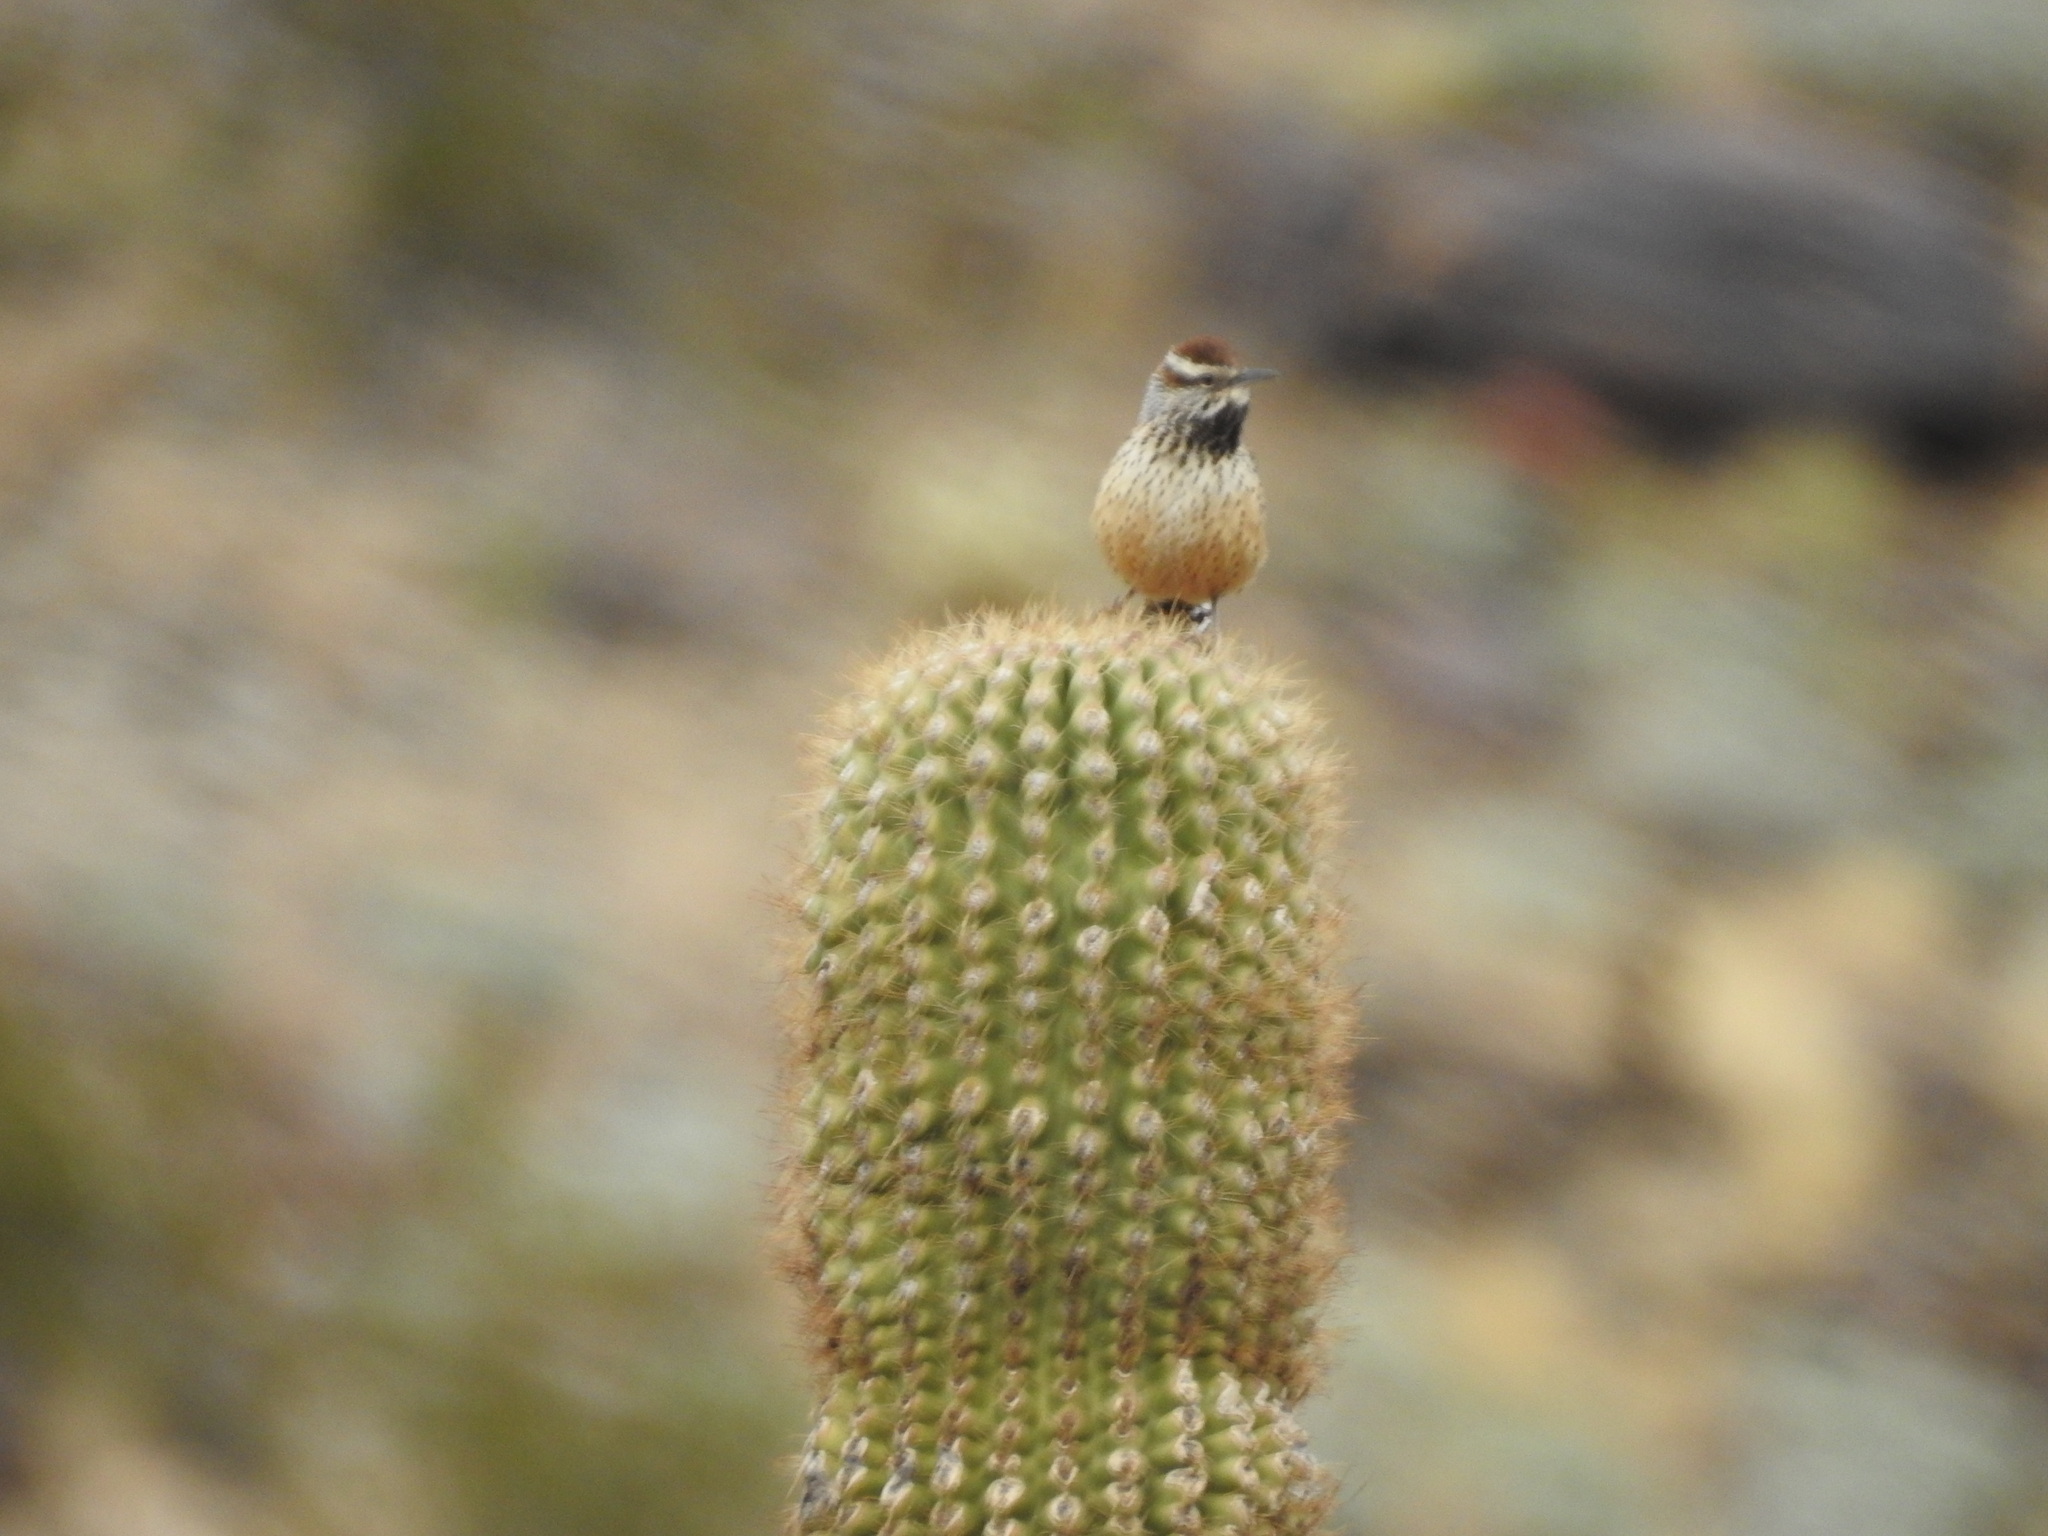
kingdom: Animalia
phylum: Chordata
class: Aves
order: Passeriformes
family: Troglodytidae
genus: Campylorhynchus
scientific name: Campylorhynchus brunneicapillus
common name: Cactus wren
